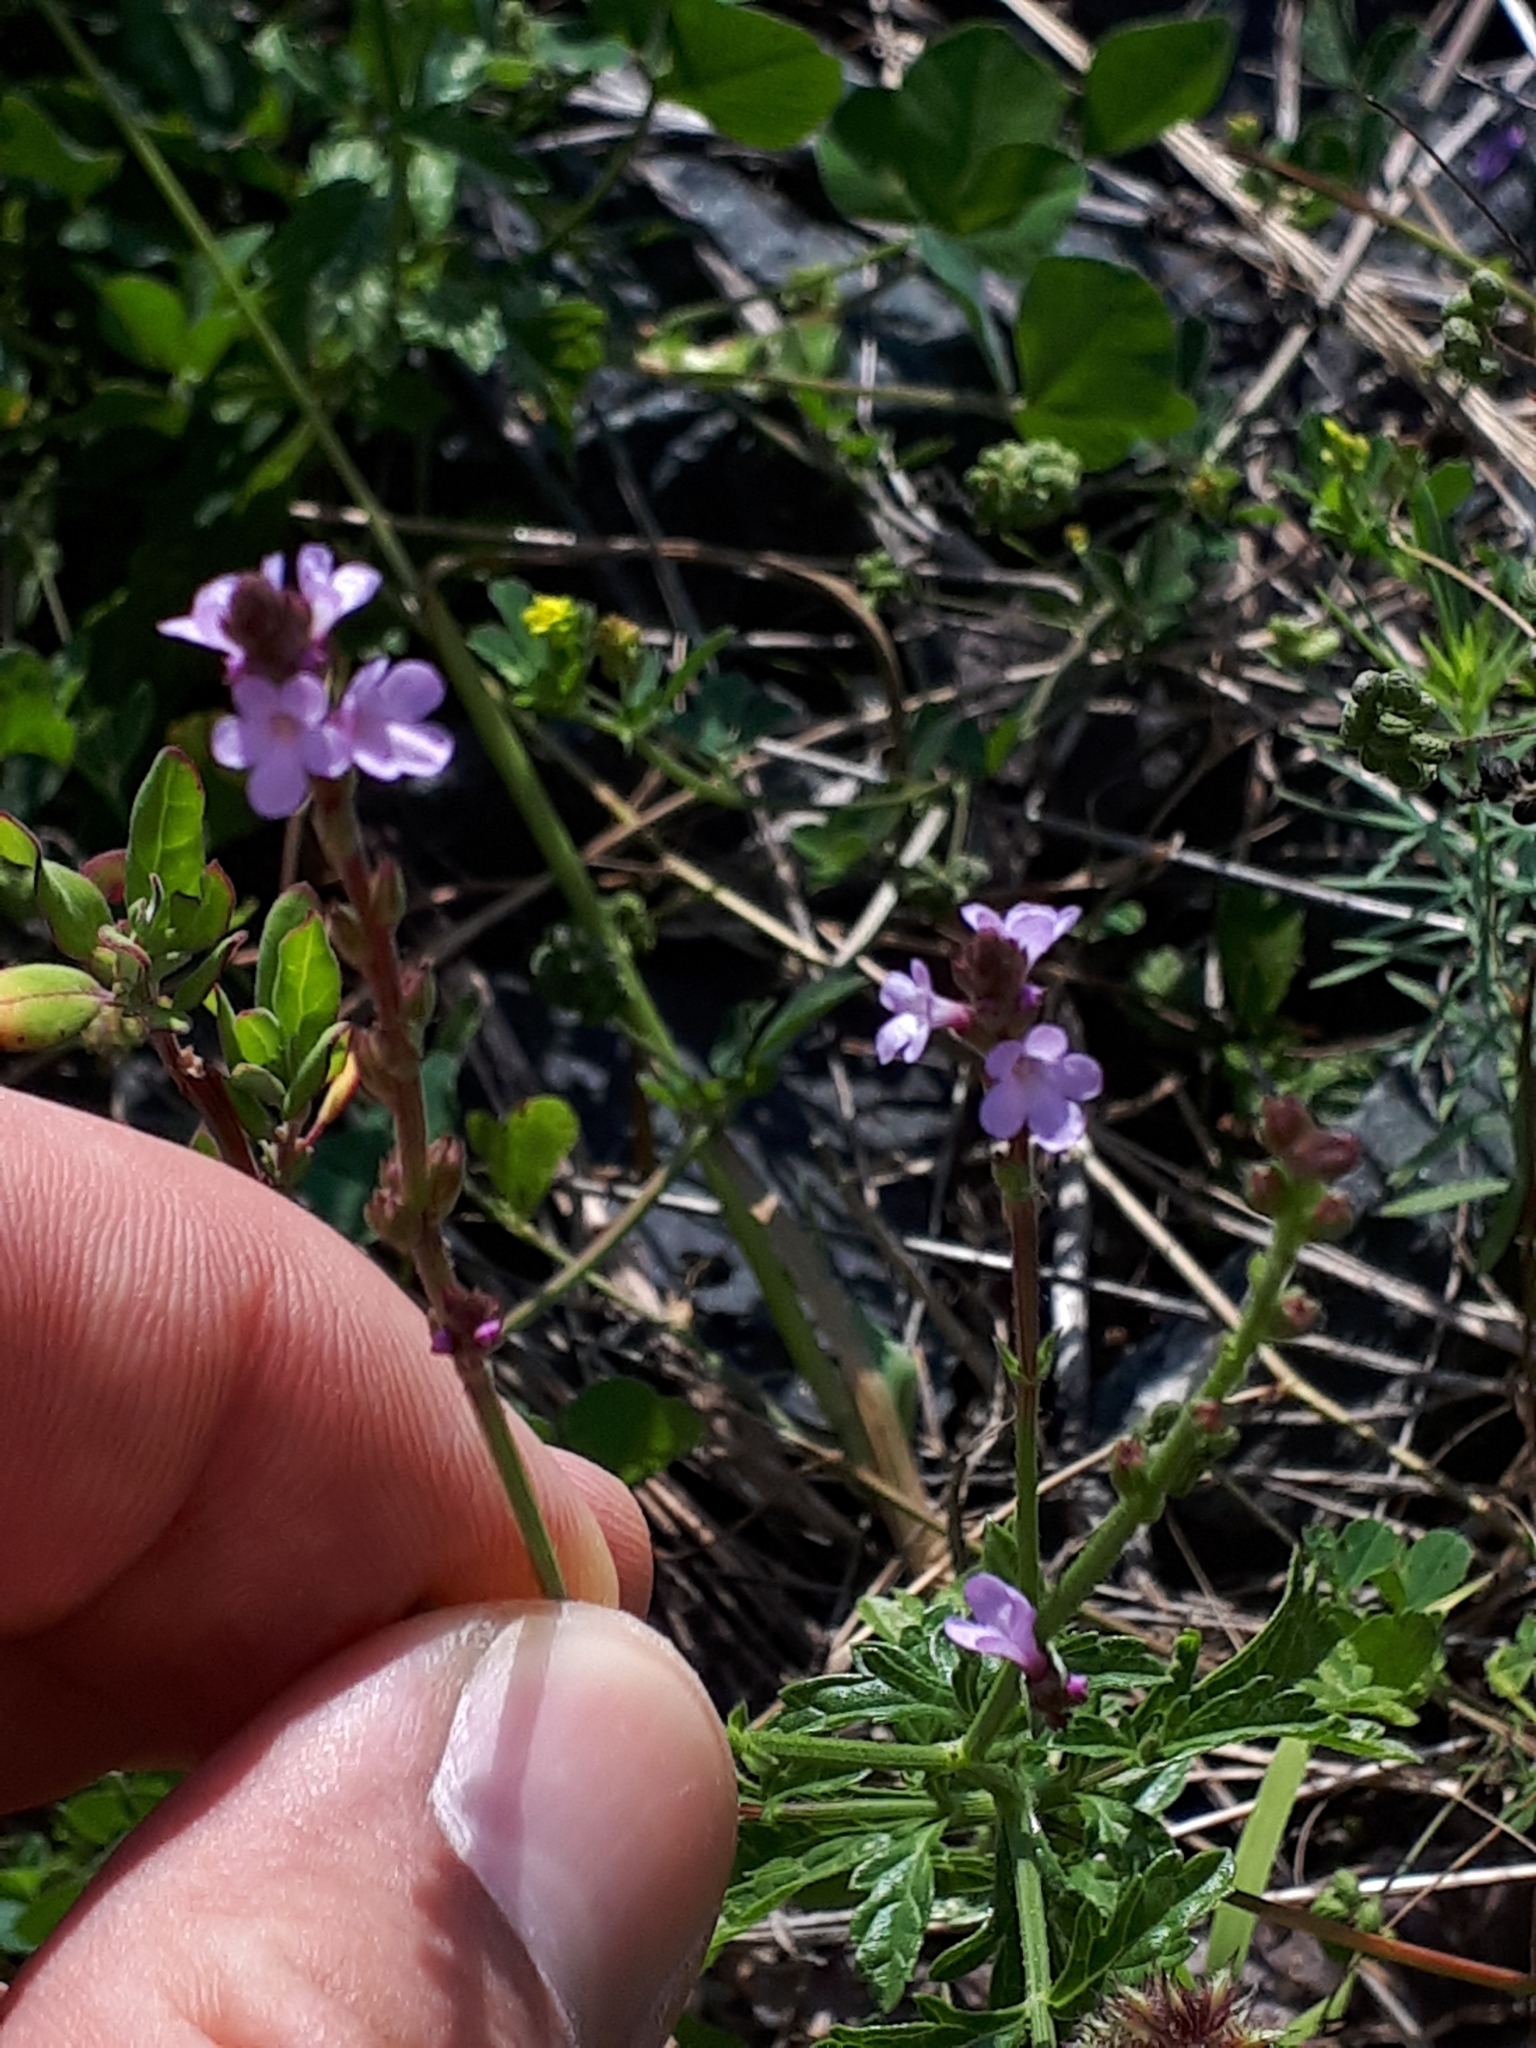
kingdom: Plantae
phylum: Tracheophyta
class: Magnoliopsida
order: Lamiales
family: Verbenaceae
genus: Verbena
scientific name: Verbena officinalis
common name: Vervain
